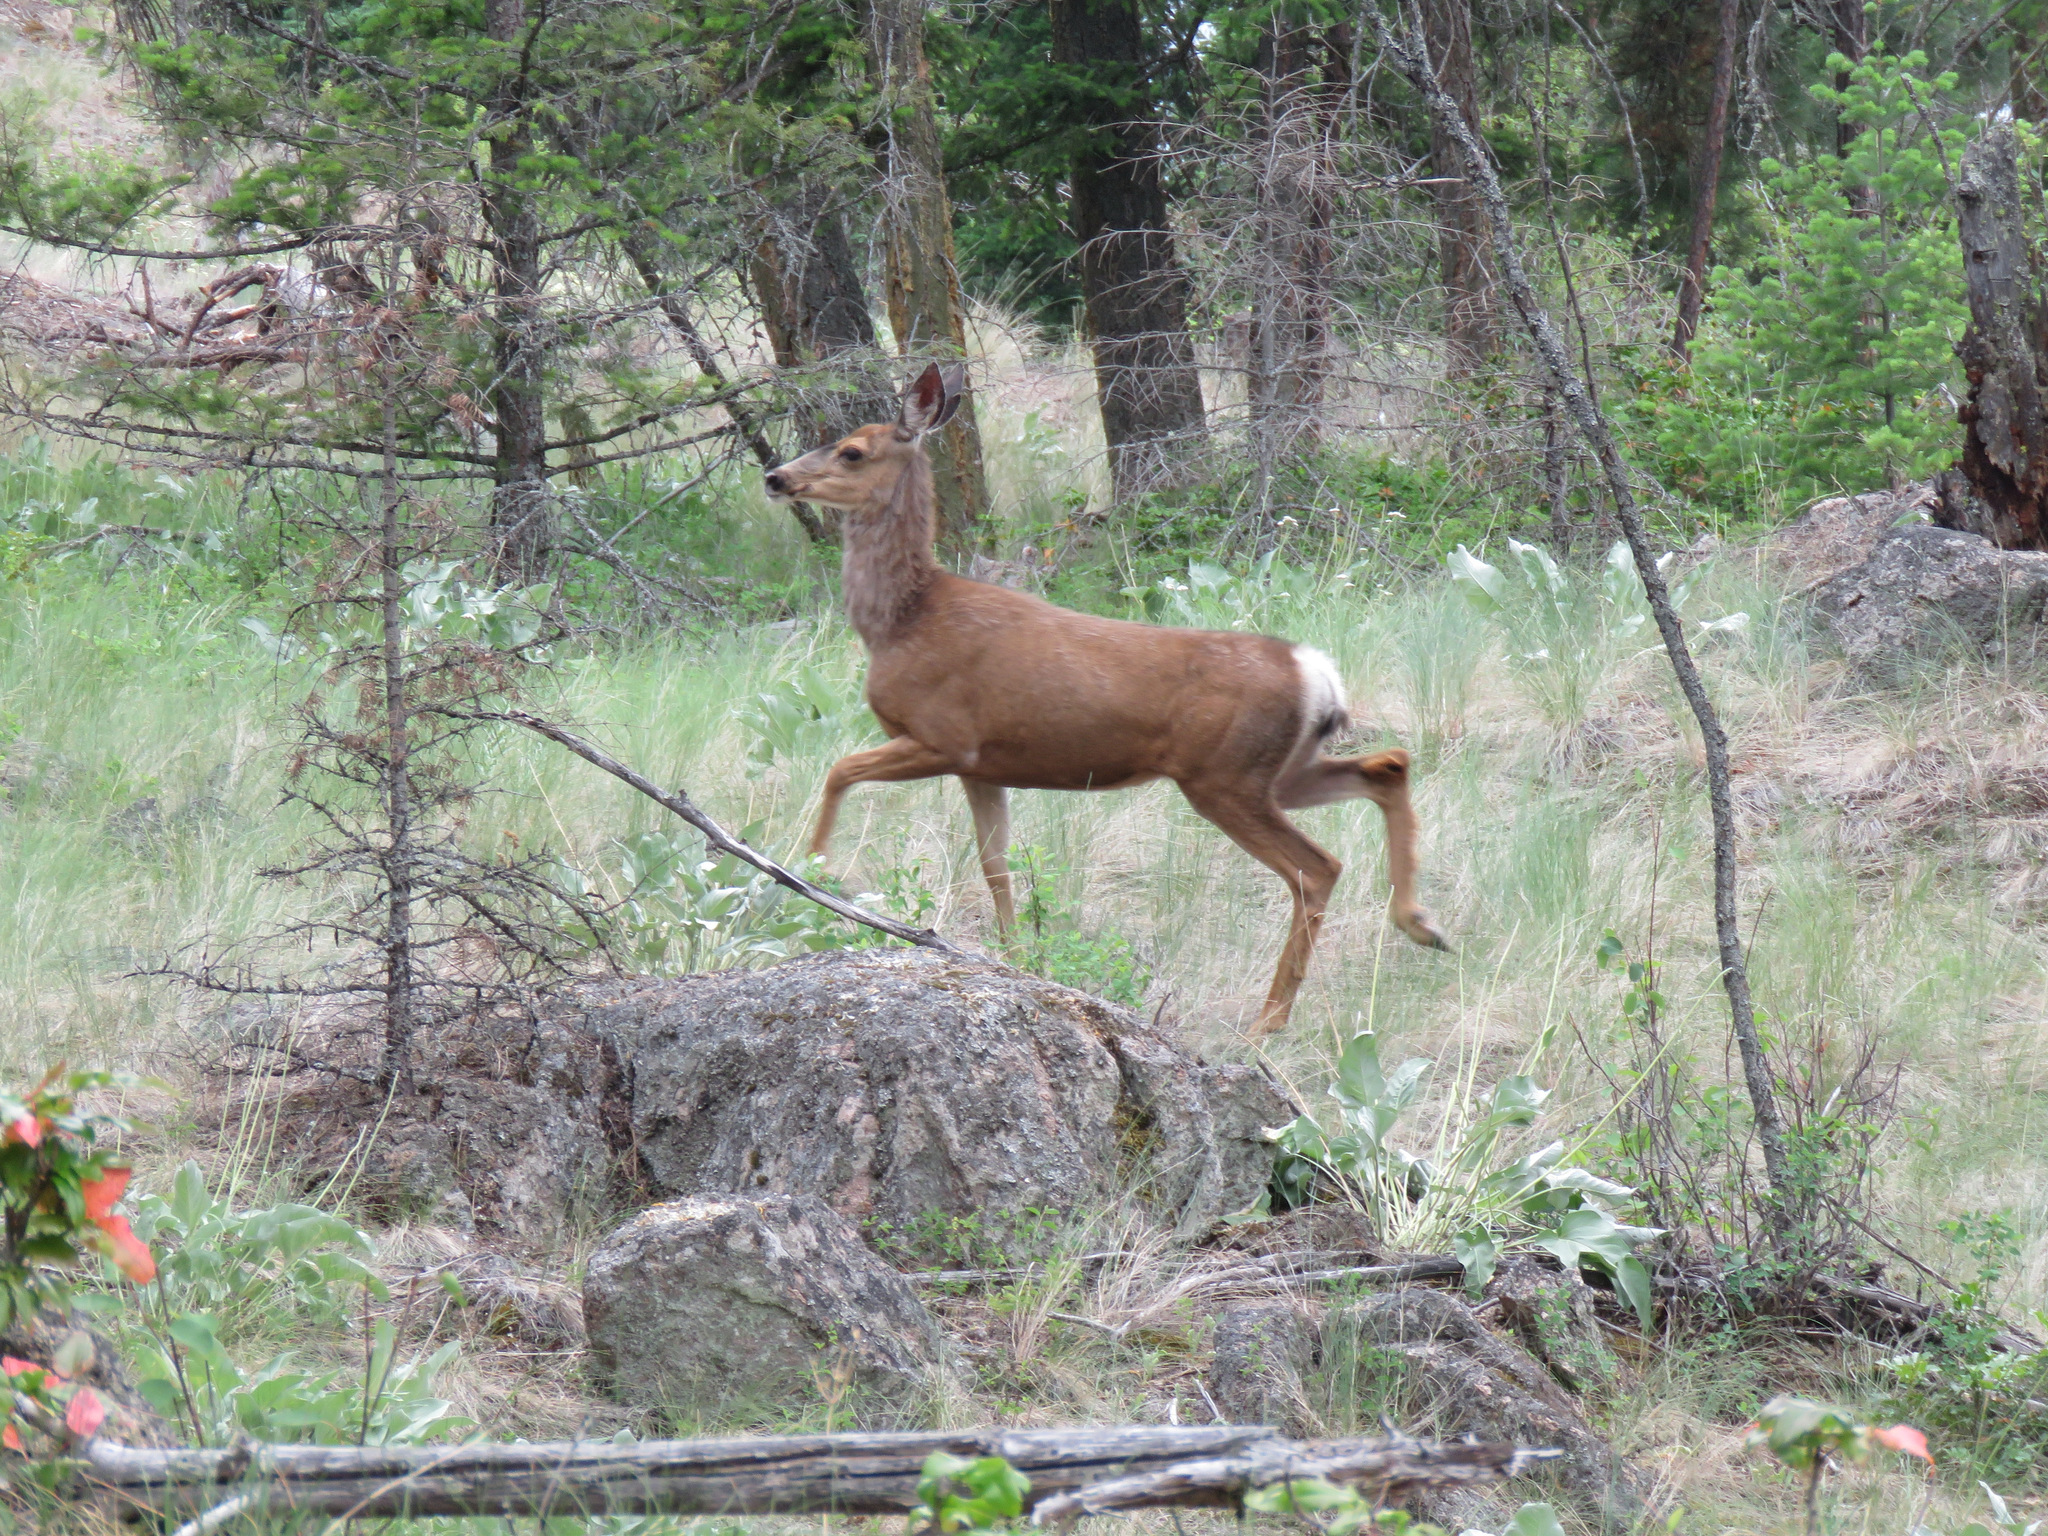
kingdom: Animalia
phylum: Chordata
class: Mammalia
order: Artiodactyla
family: Cervidae
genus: Odocoileus
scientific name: Odocoileus hemionus
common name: Mule deer
